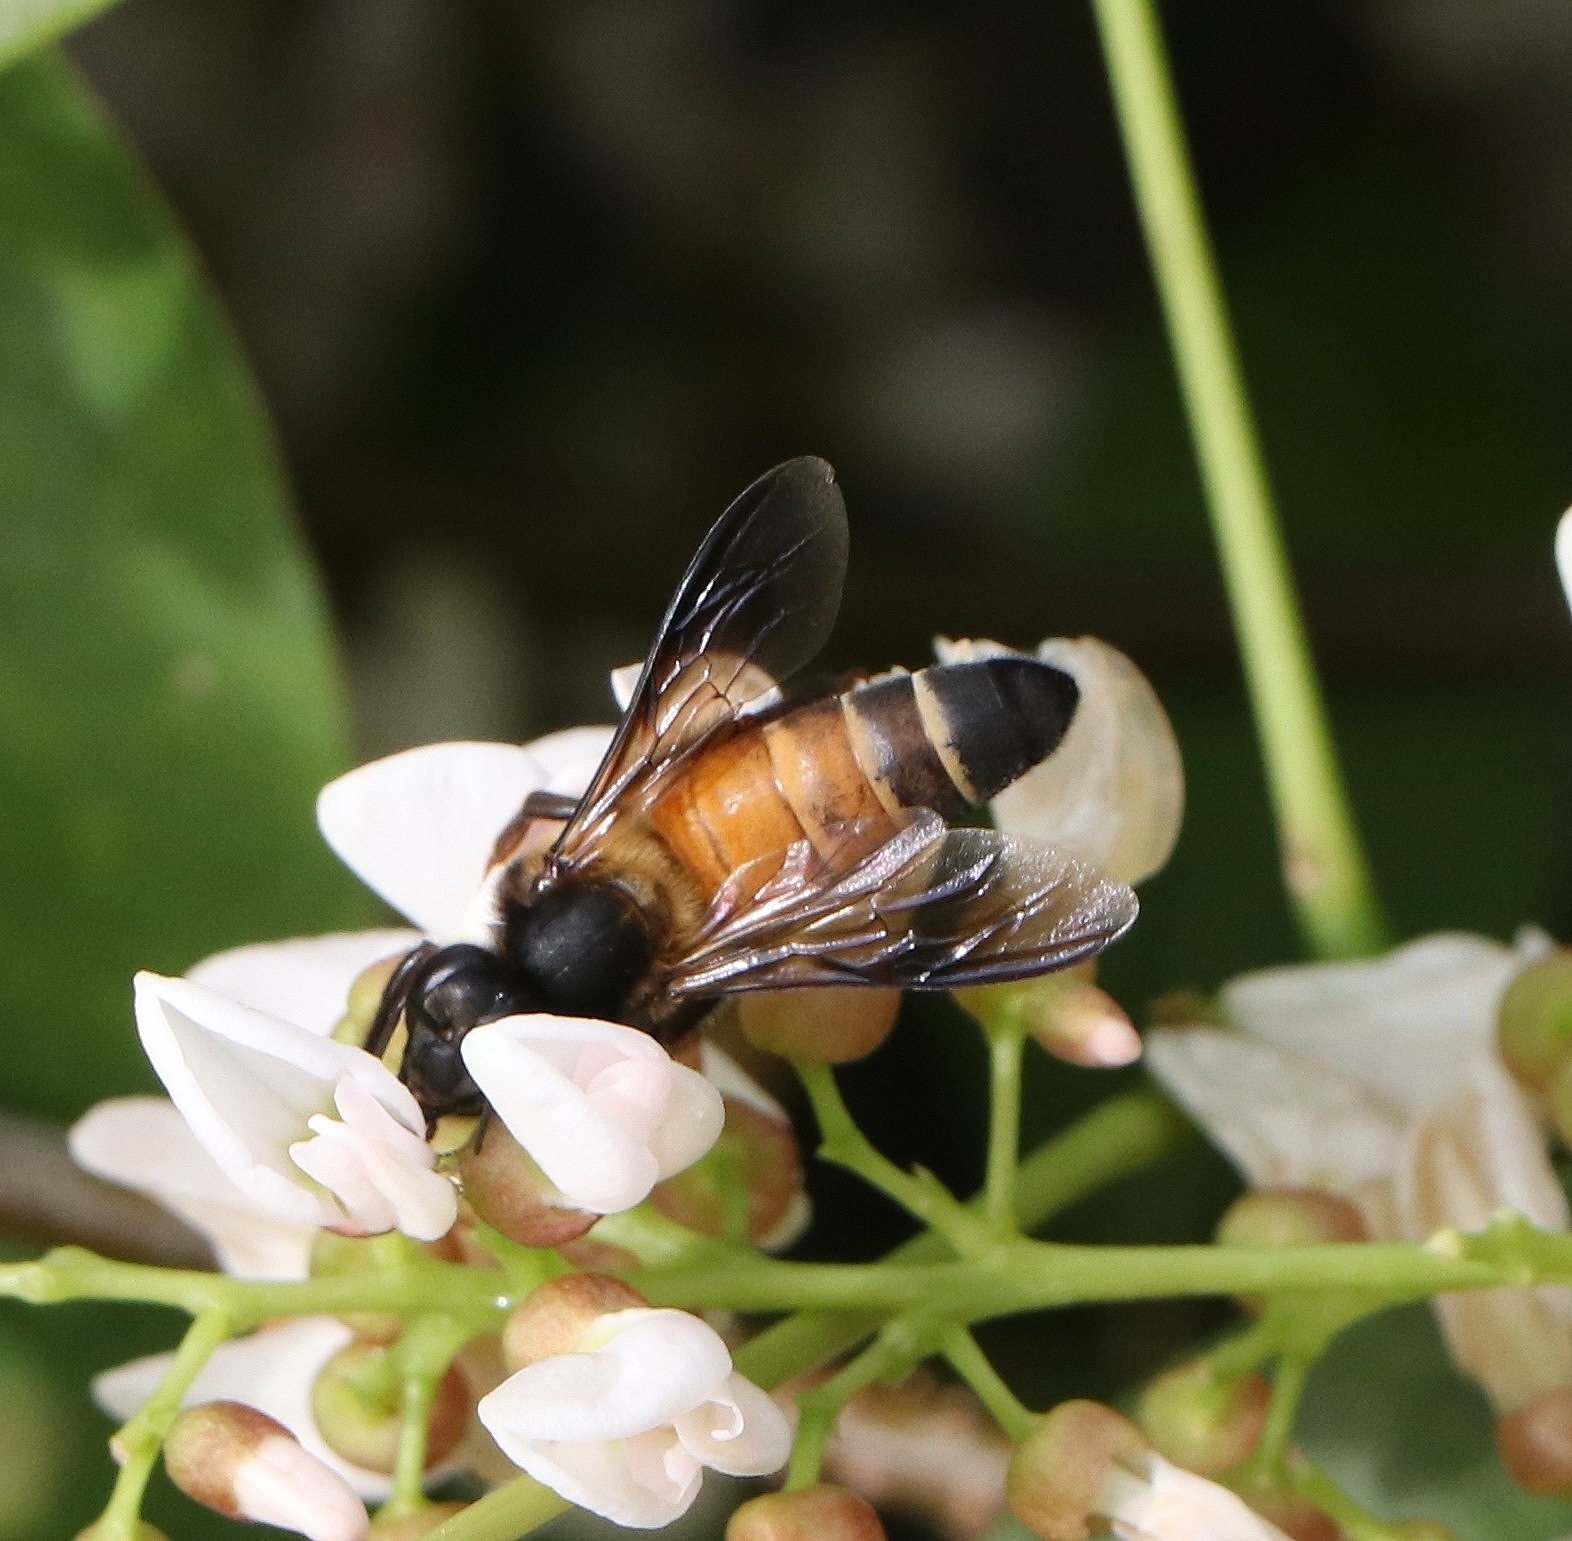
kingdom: Animalia
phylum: Arthropoda
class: Insecta
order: Hymenoptera
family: Apidae
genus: Apis
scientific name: Apis dorsata
